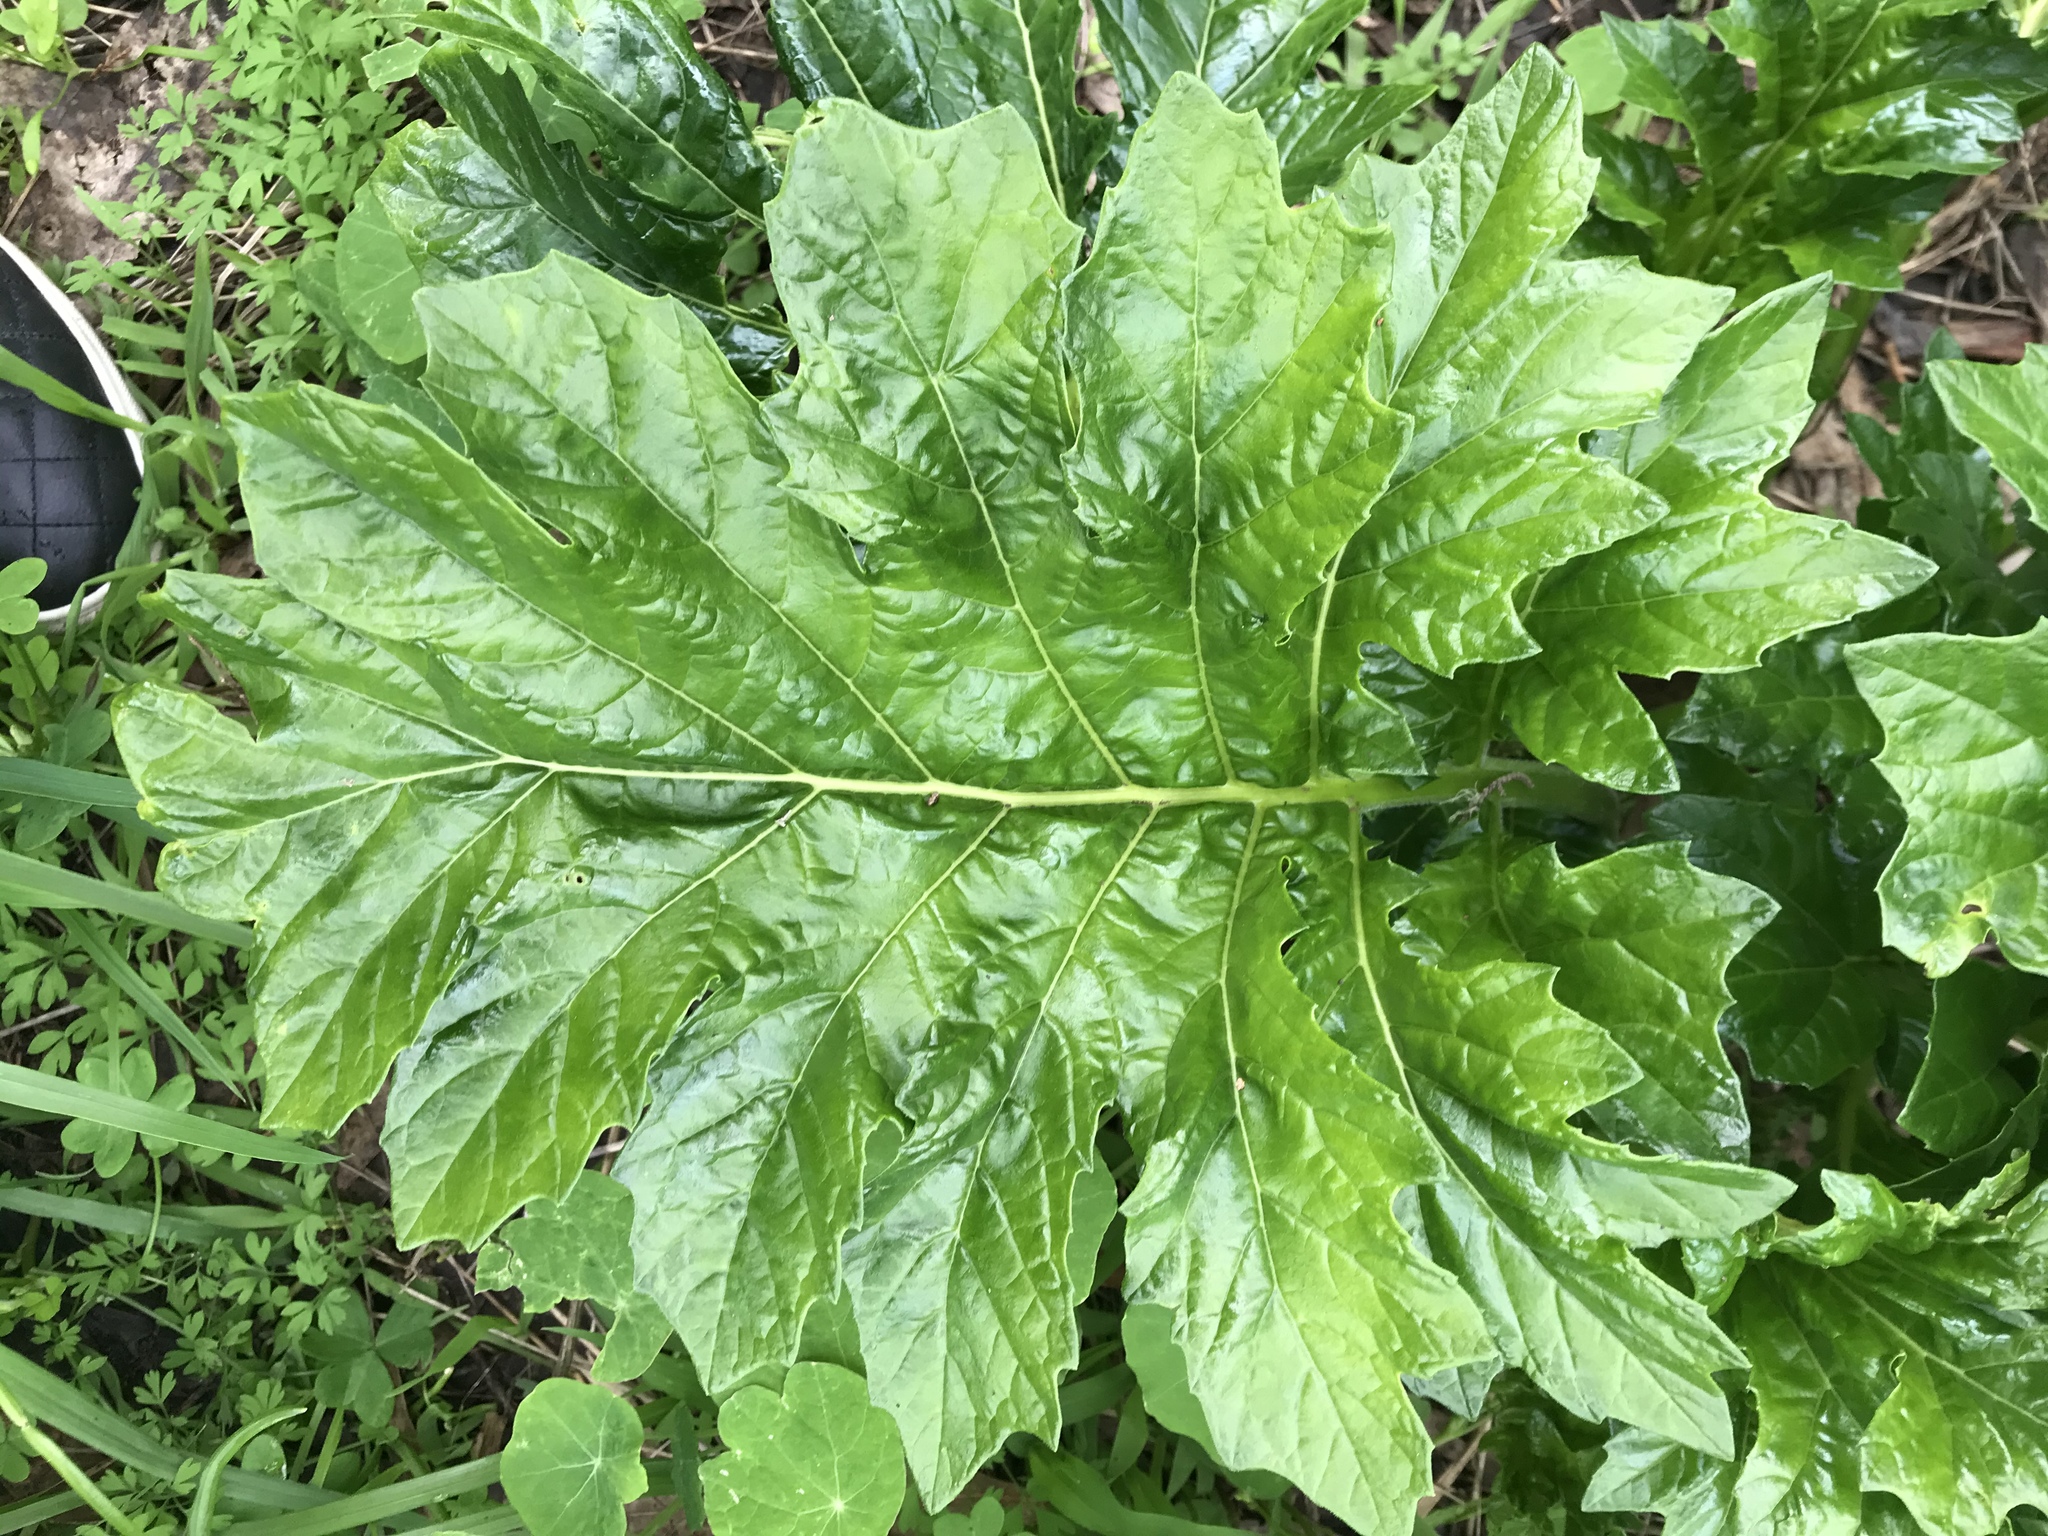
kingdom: Plantae
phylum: Tracheophyta
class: Magnoliopsida
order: Lamiales
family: Acanthaceae
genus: Acanthus
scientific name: Acanthus mollis
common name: Bear's-breech
